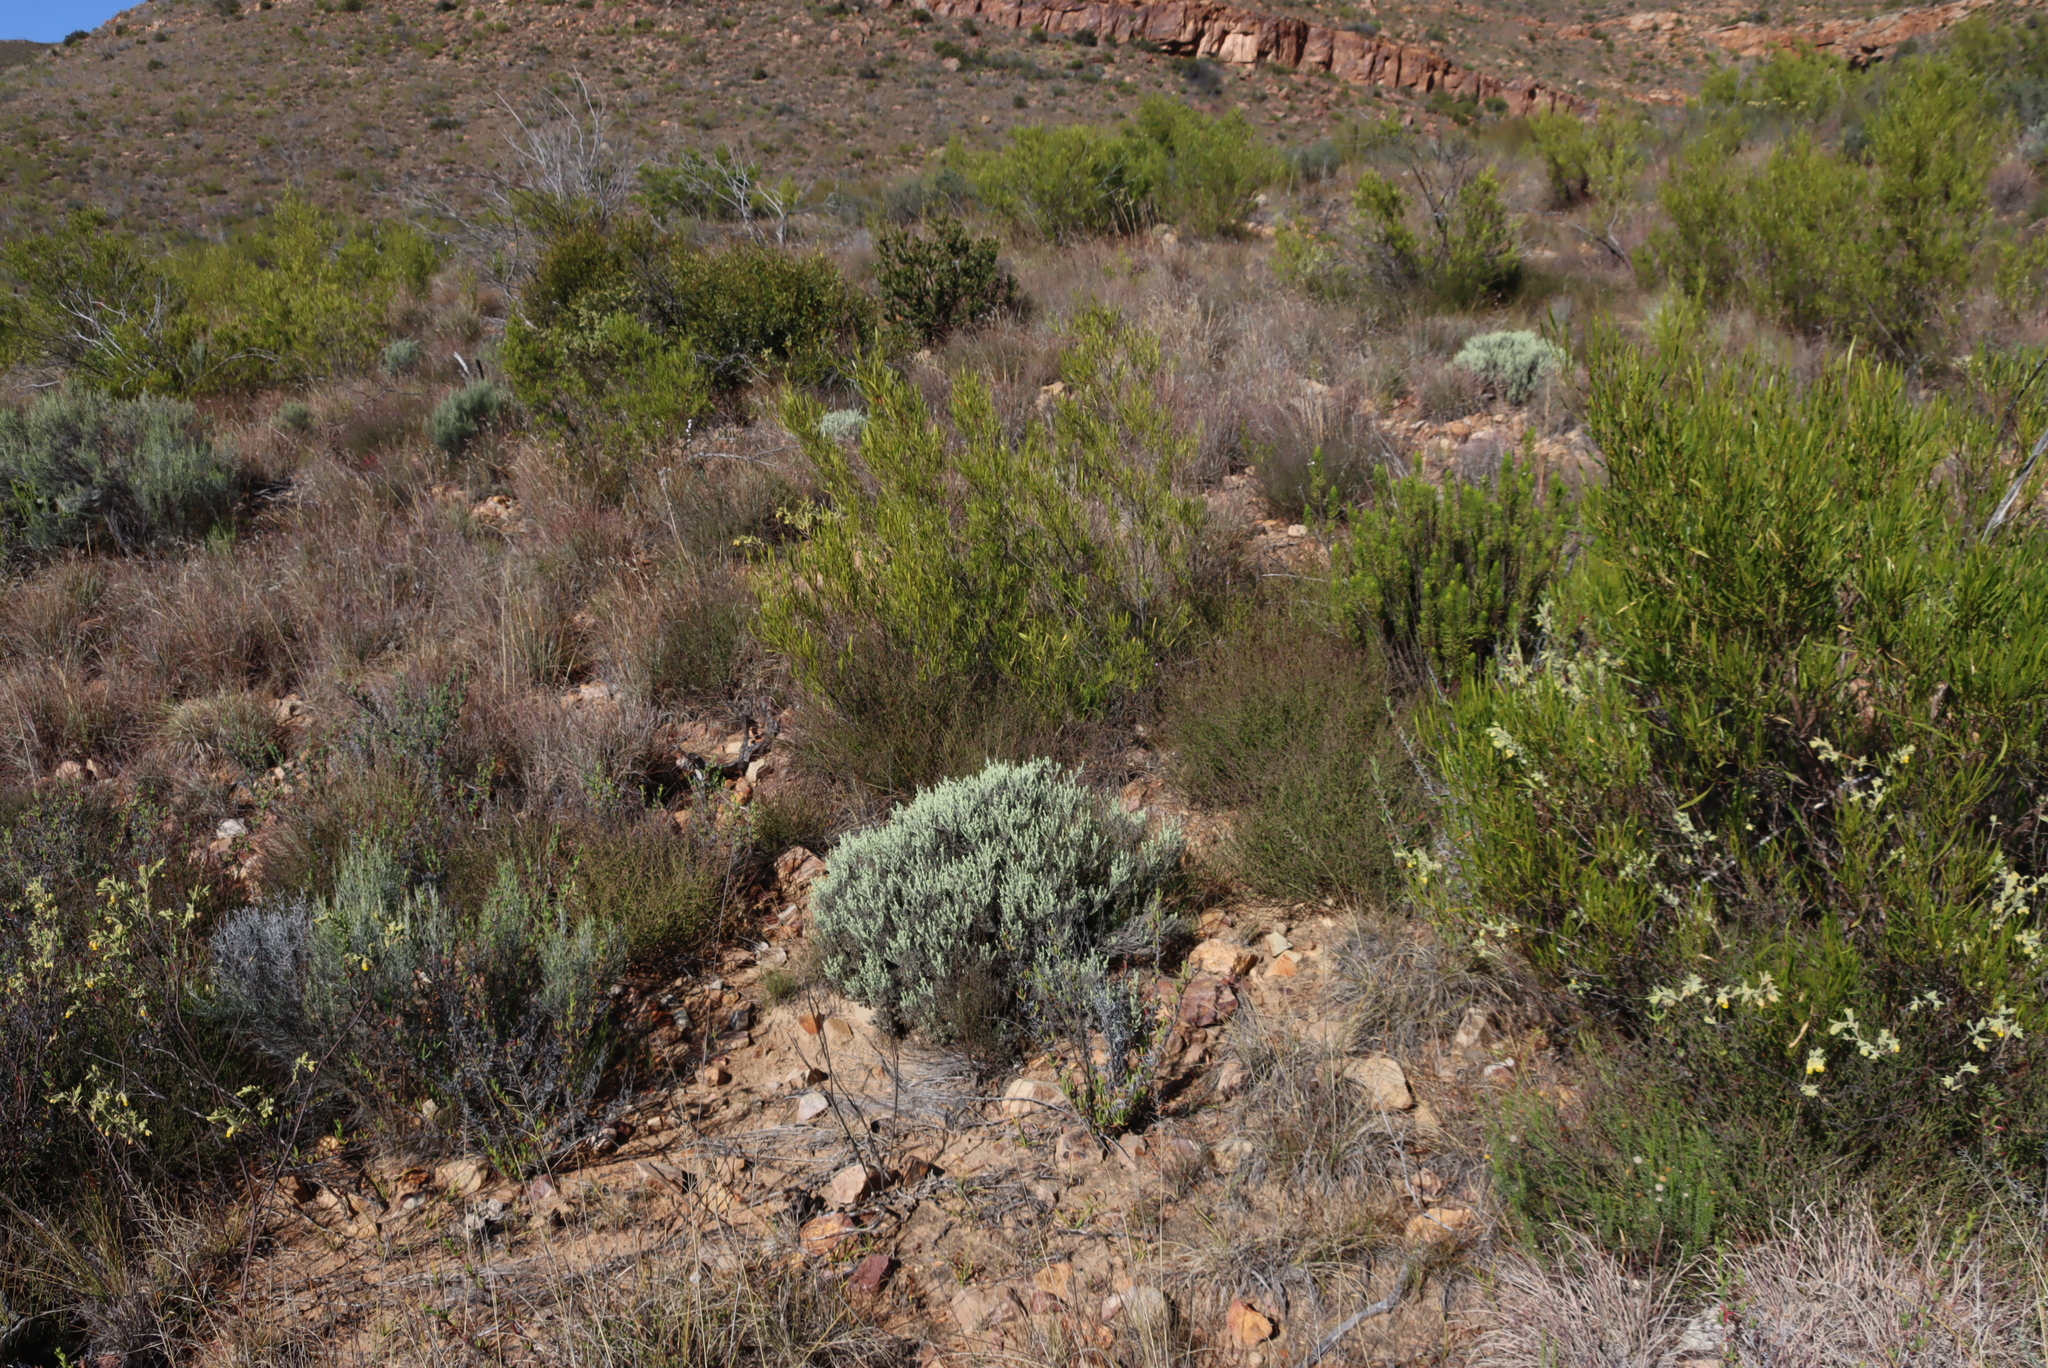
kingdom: Plantae
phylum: Tracheophyta
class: Magnoliopsida
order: Asterales
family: Asteraceae
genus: Helichrysum
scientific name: Helichrysum excisum
